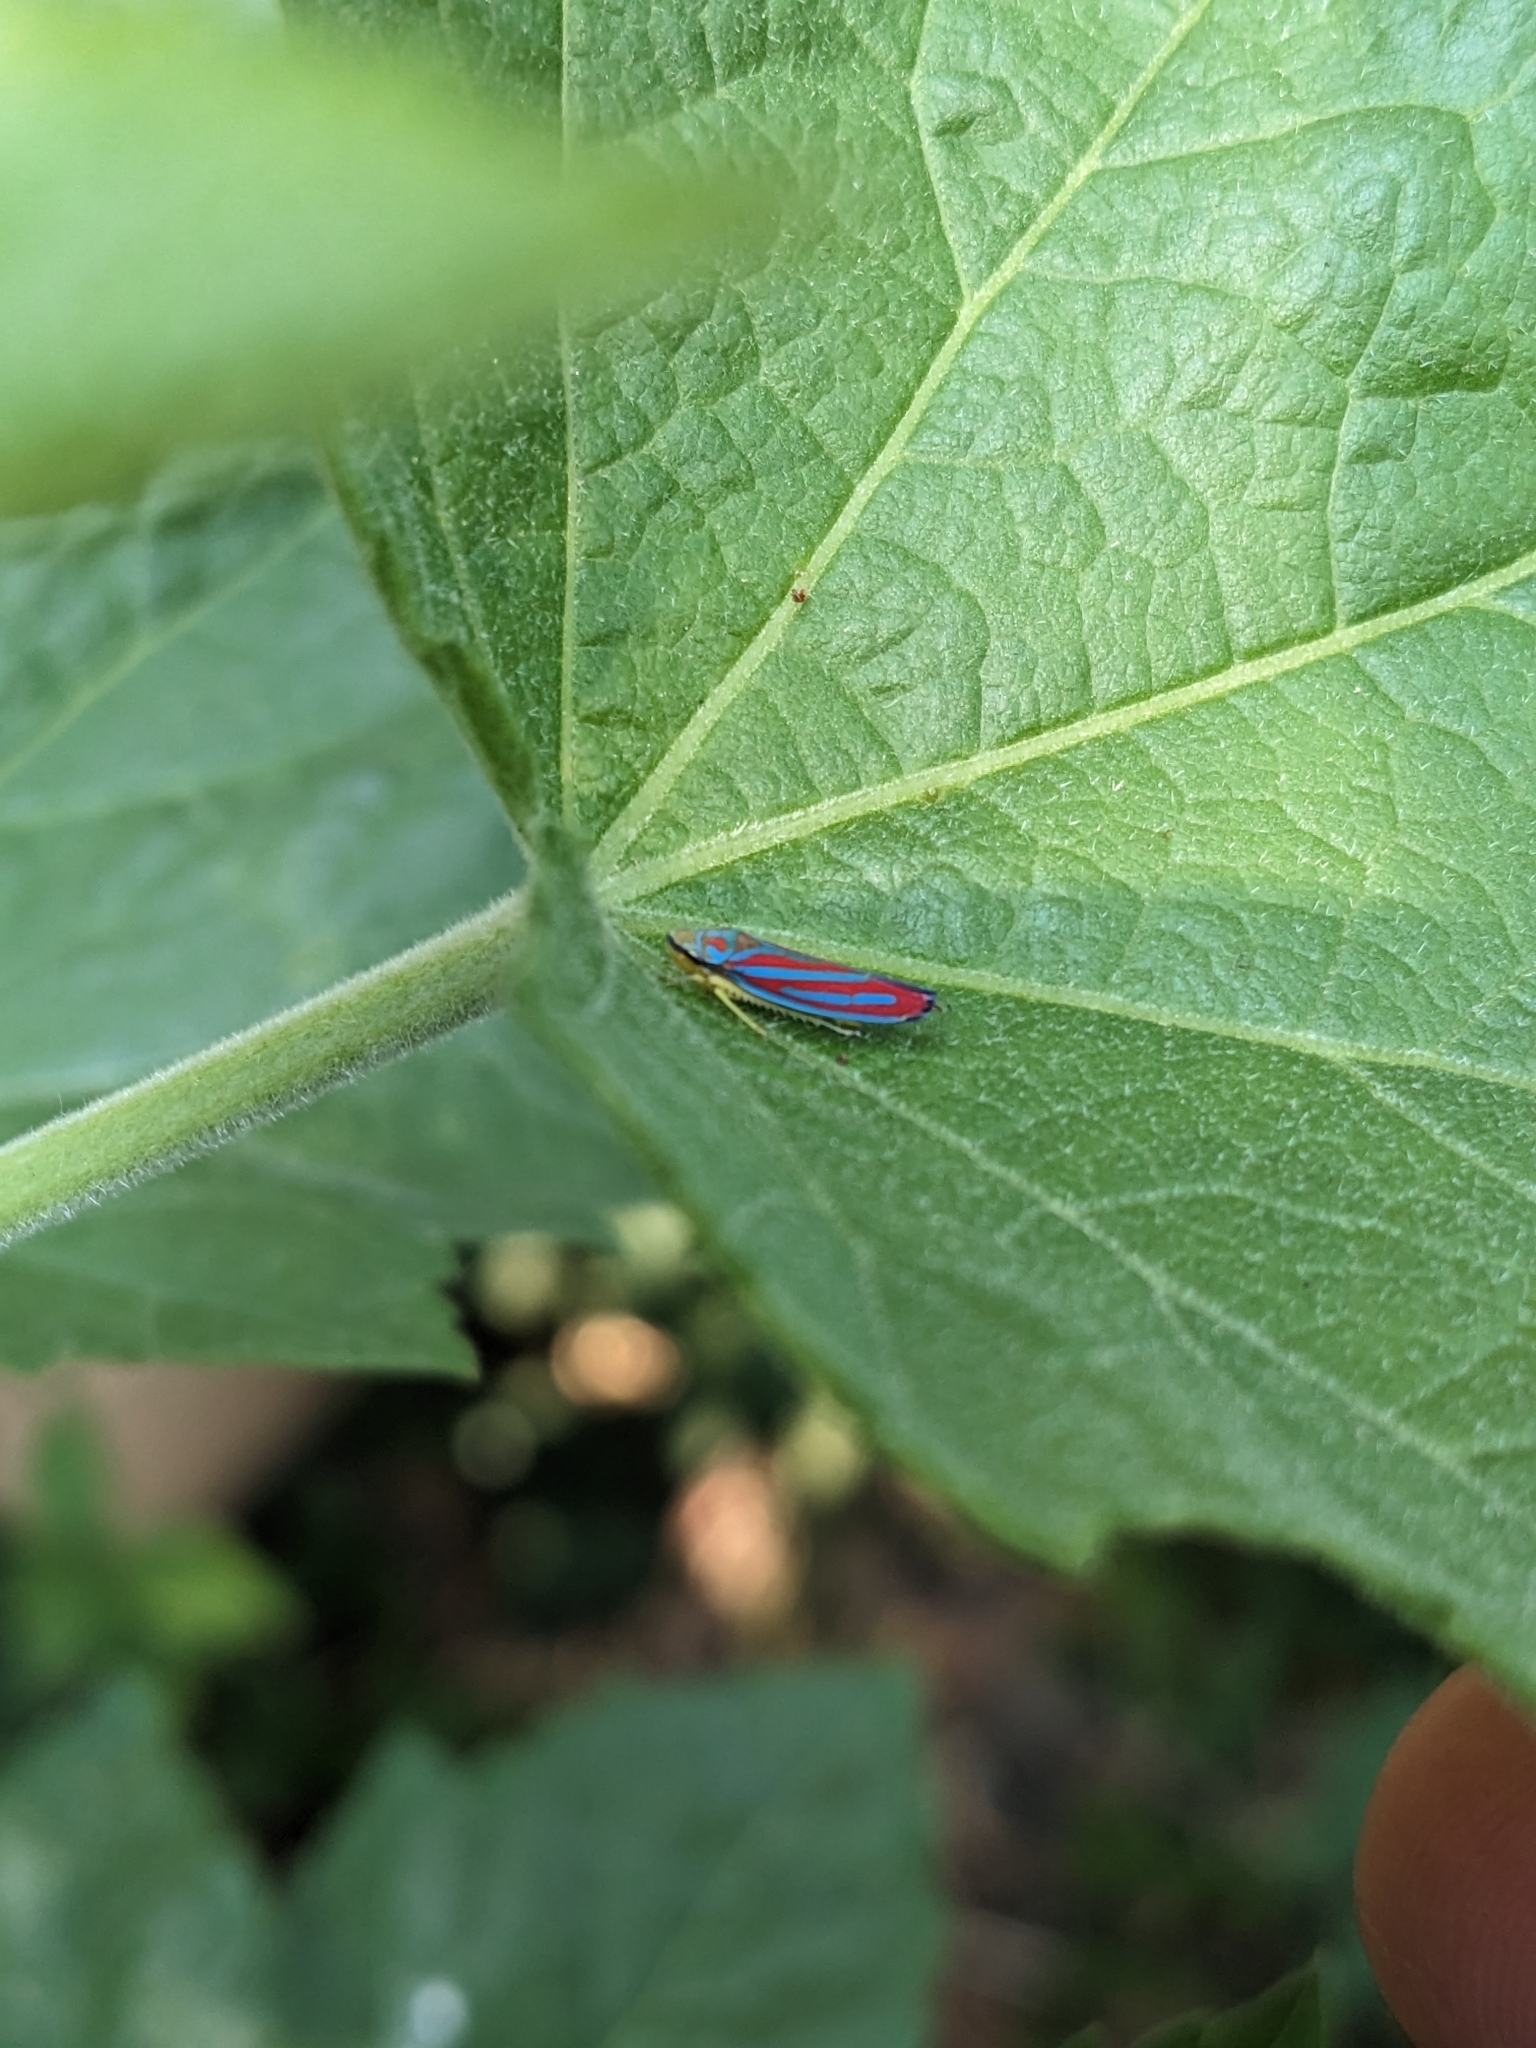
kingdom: Animalia
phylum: Arthropoda
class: Insecta
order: Hemiptera
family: Cicadellidae
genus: Graphocephala
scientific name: Graphocephala coccinea
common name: Candy-striped leafhopper
